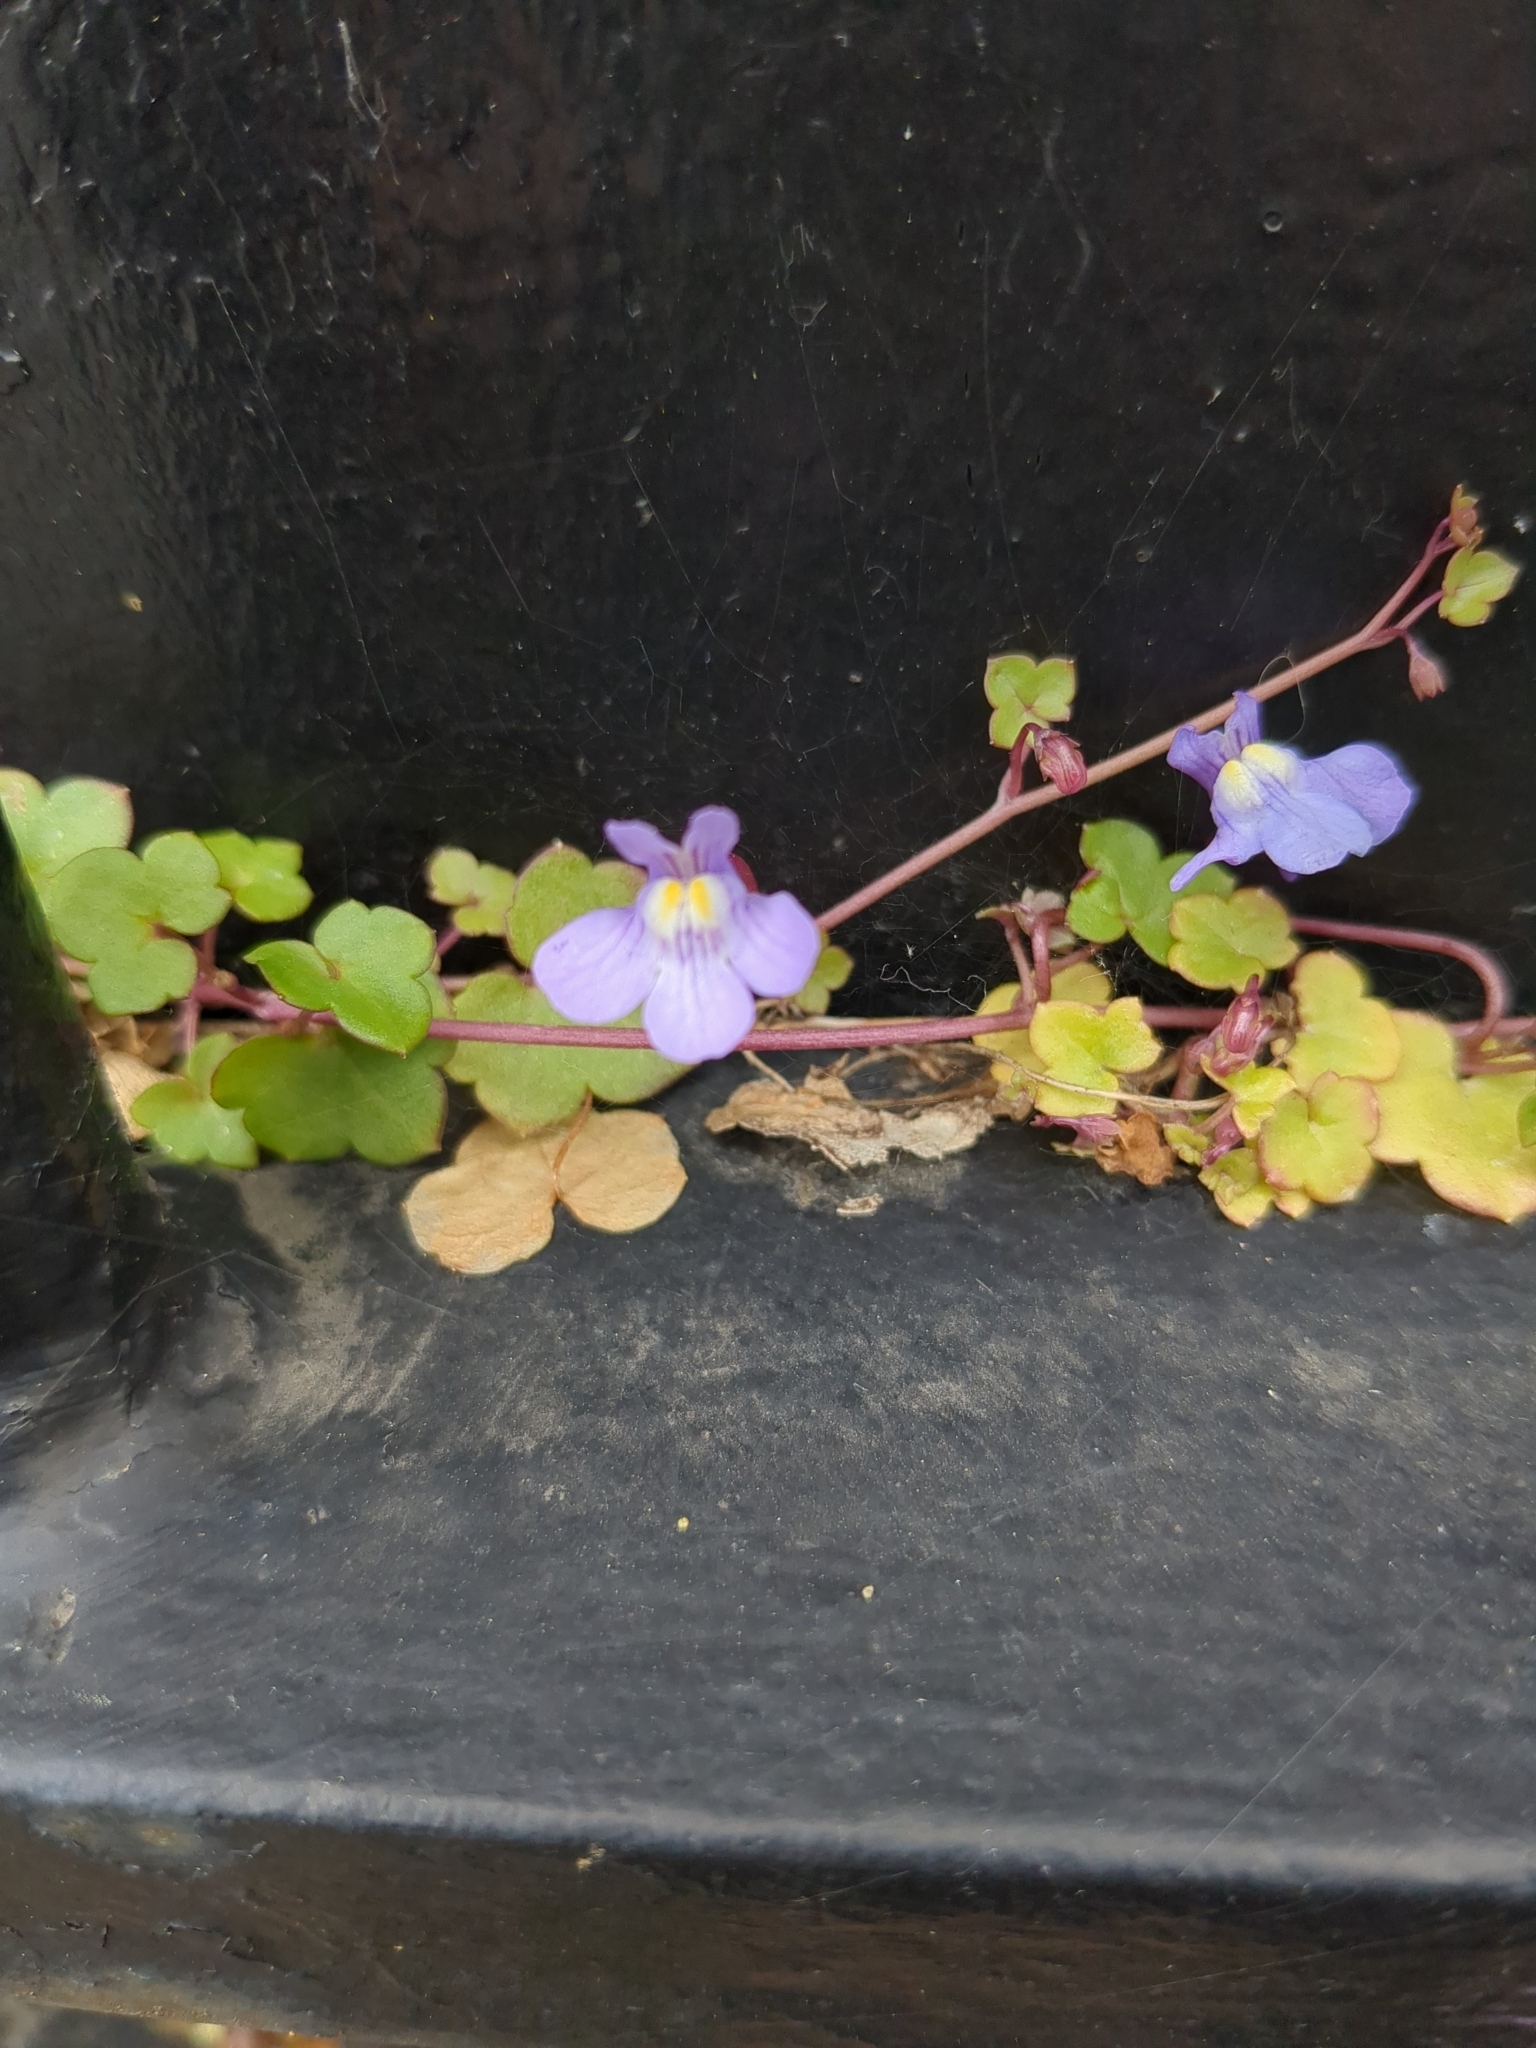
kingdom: Plantae
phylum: Tracheophyta
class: Magnoliopsida
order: Lamiales
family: Plantaginaceae
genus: Cymbalaria
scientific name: Cymbalaria muralis
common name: Ivy-leaved toadflax
